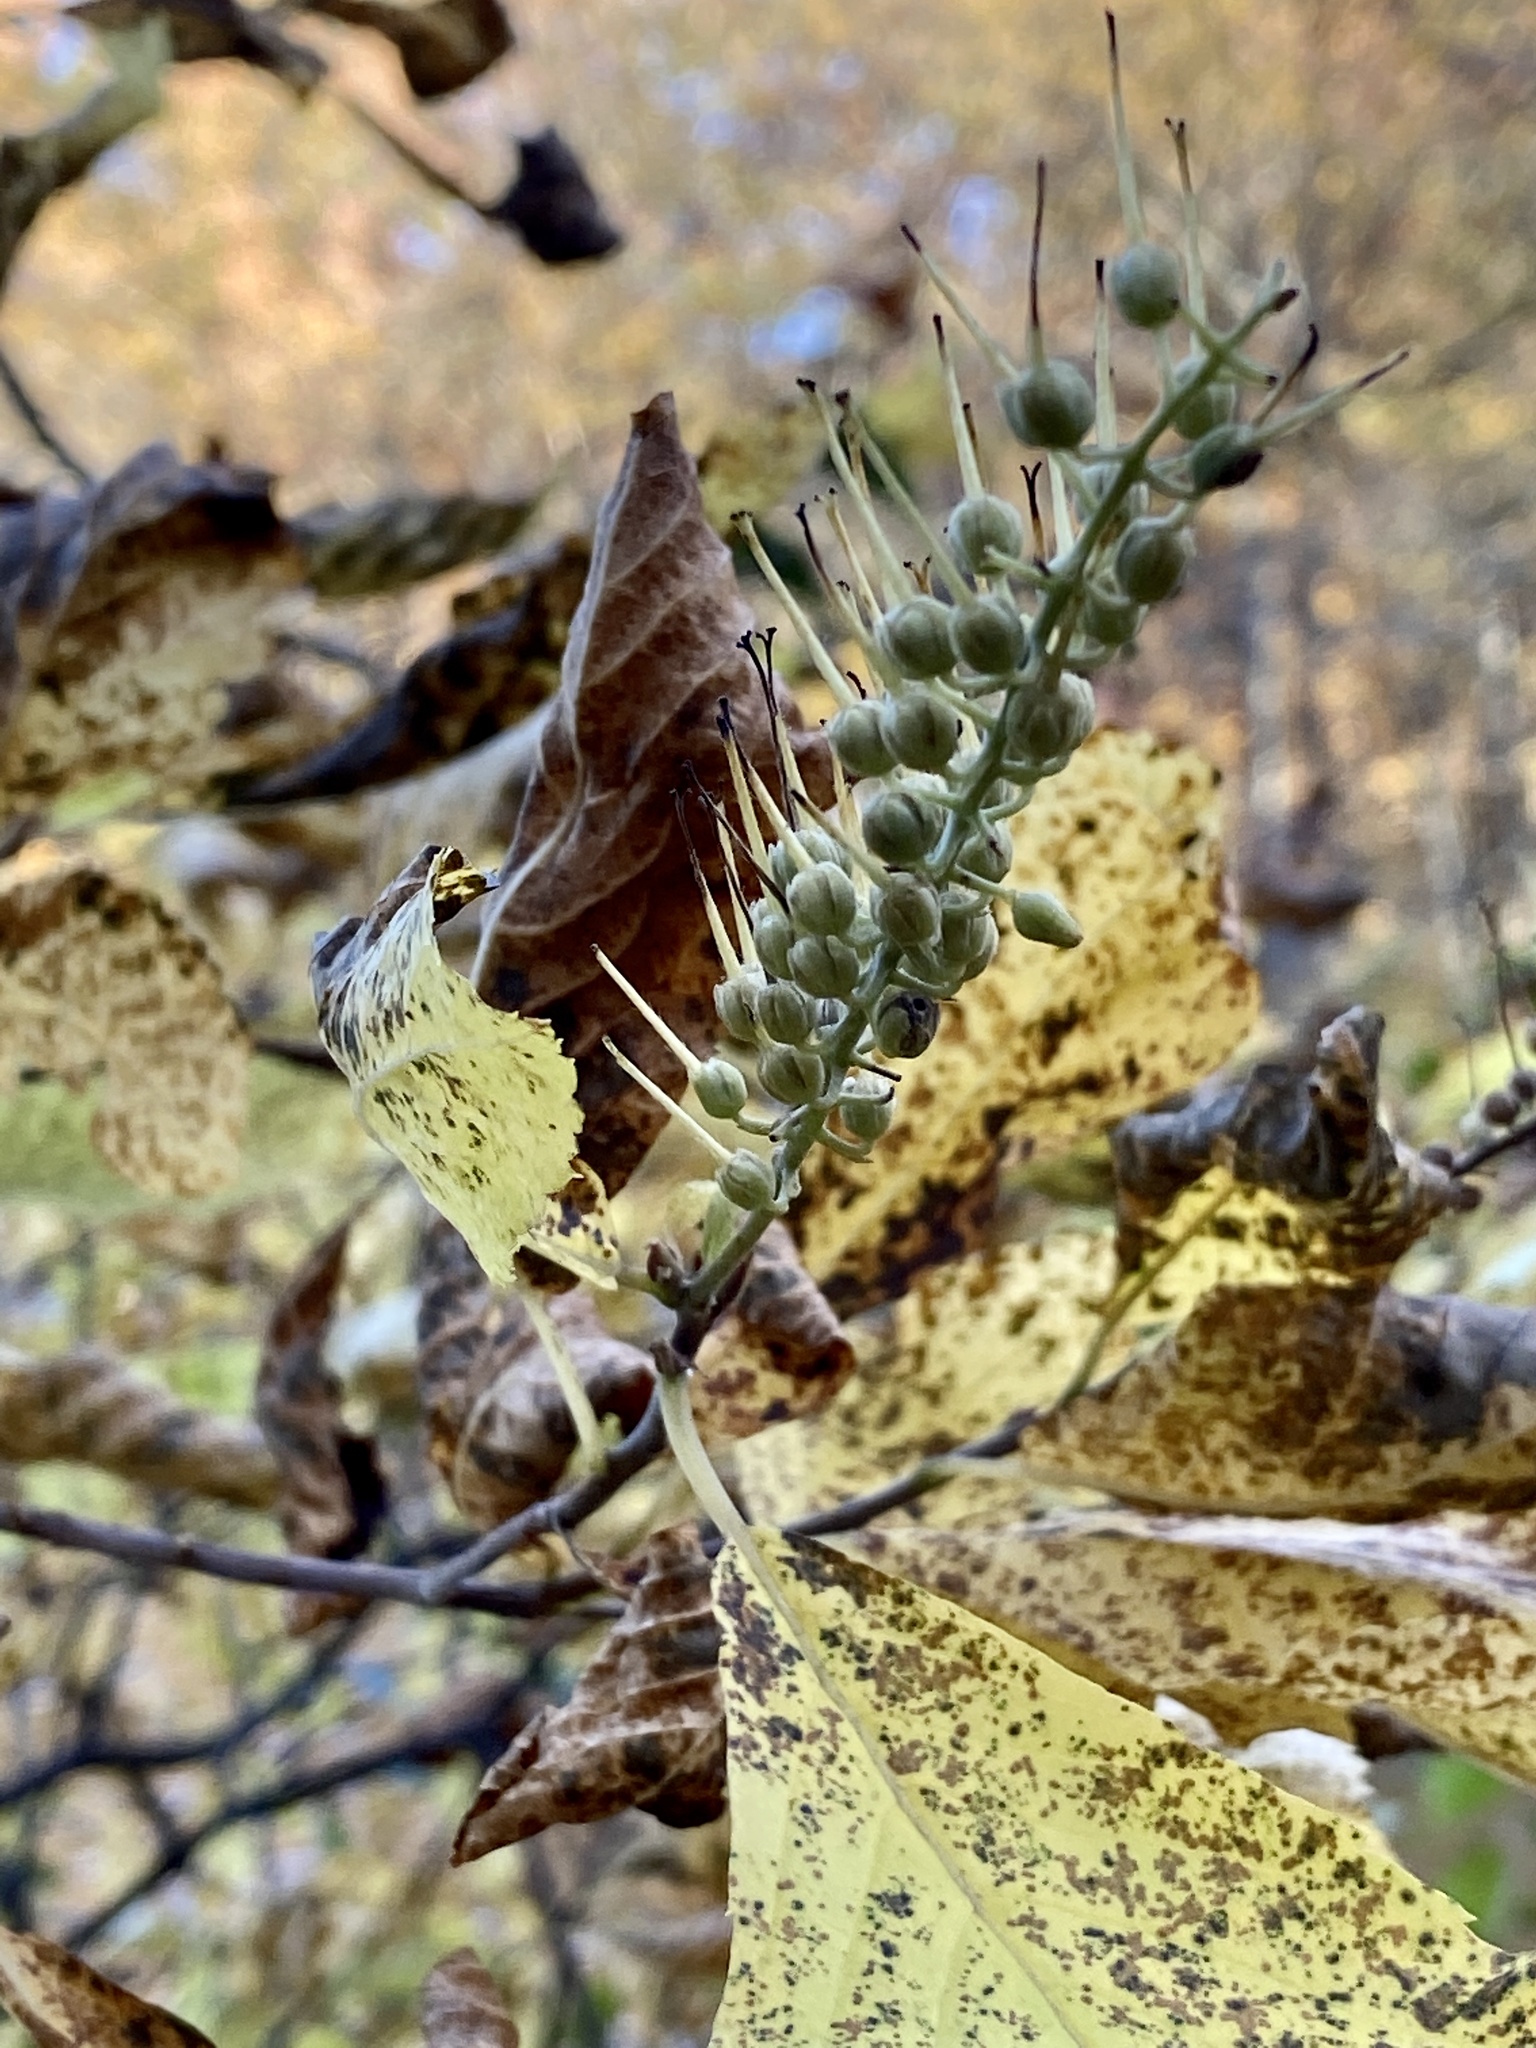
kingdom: Plantae
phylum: Tracheophyta
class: Magnoliopsida
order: Ericales
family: Clethraceae
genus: Clethra
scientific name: Clethra alnifolia
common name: Sweet pepperbush
